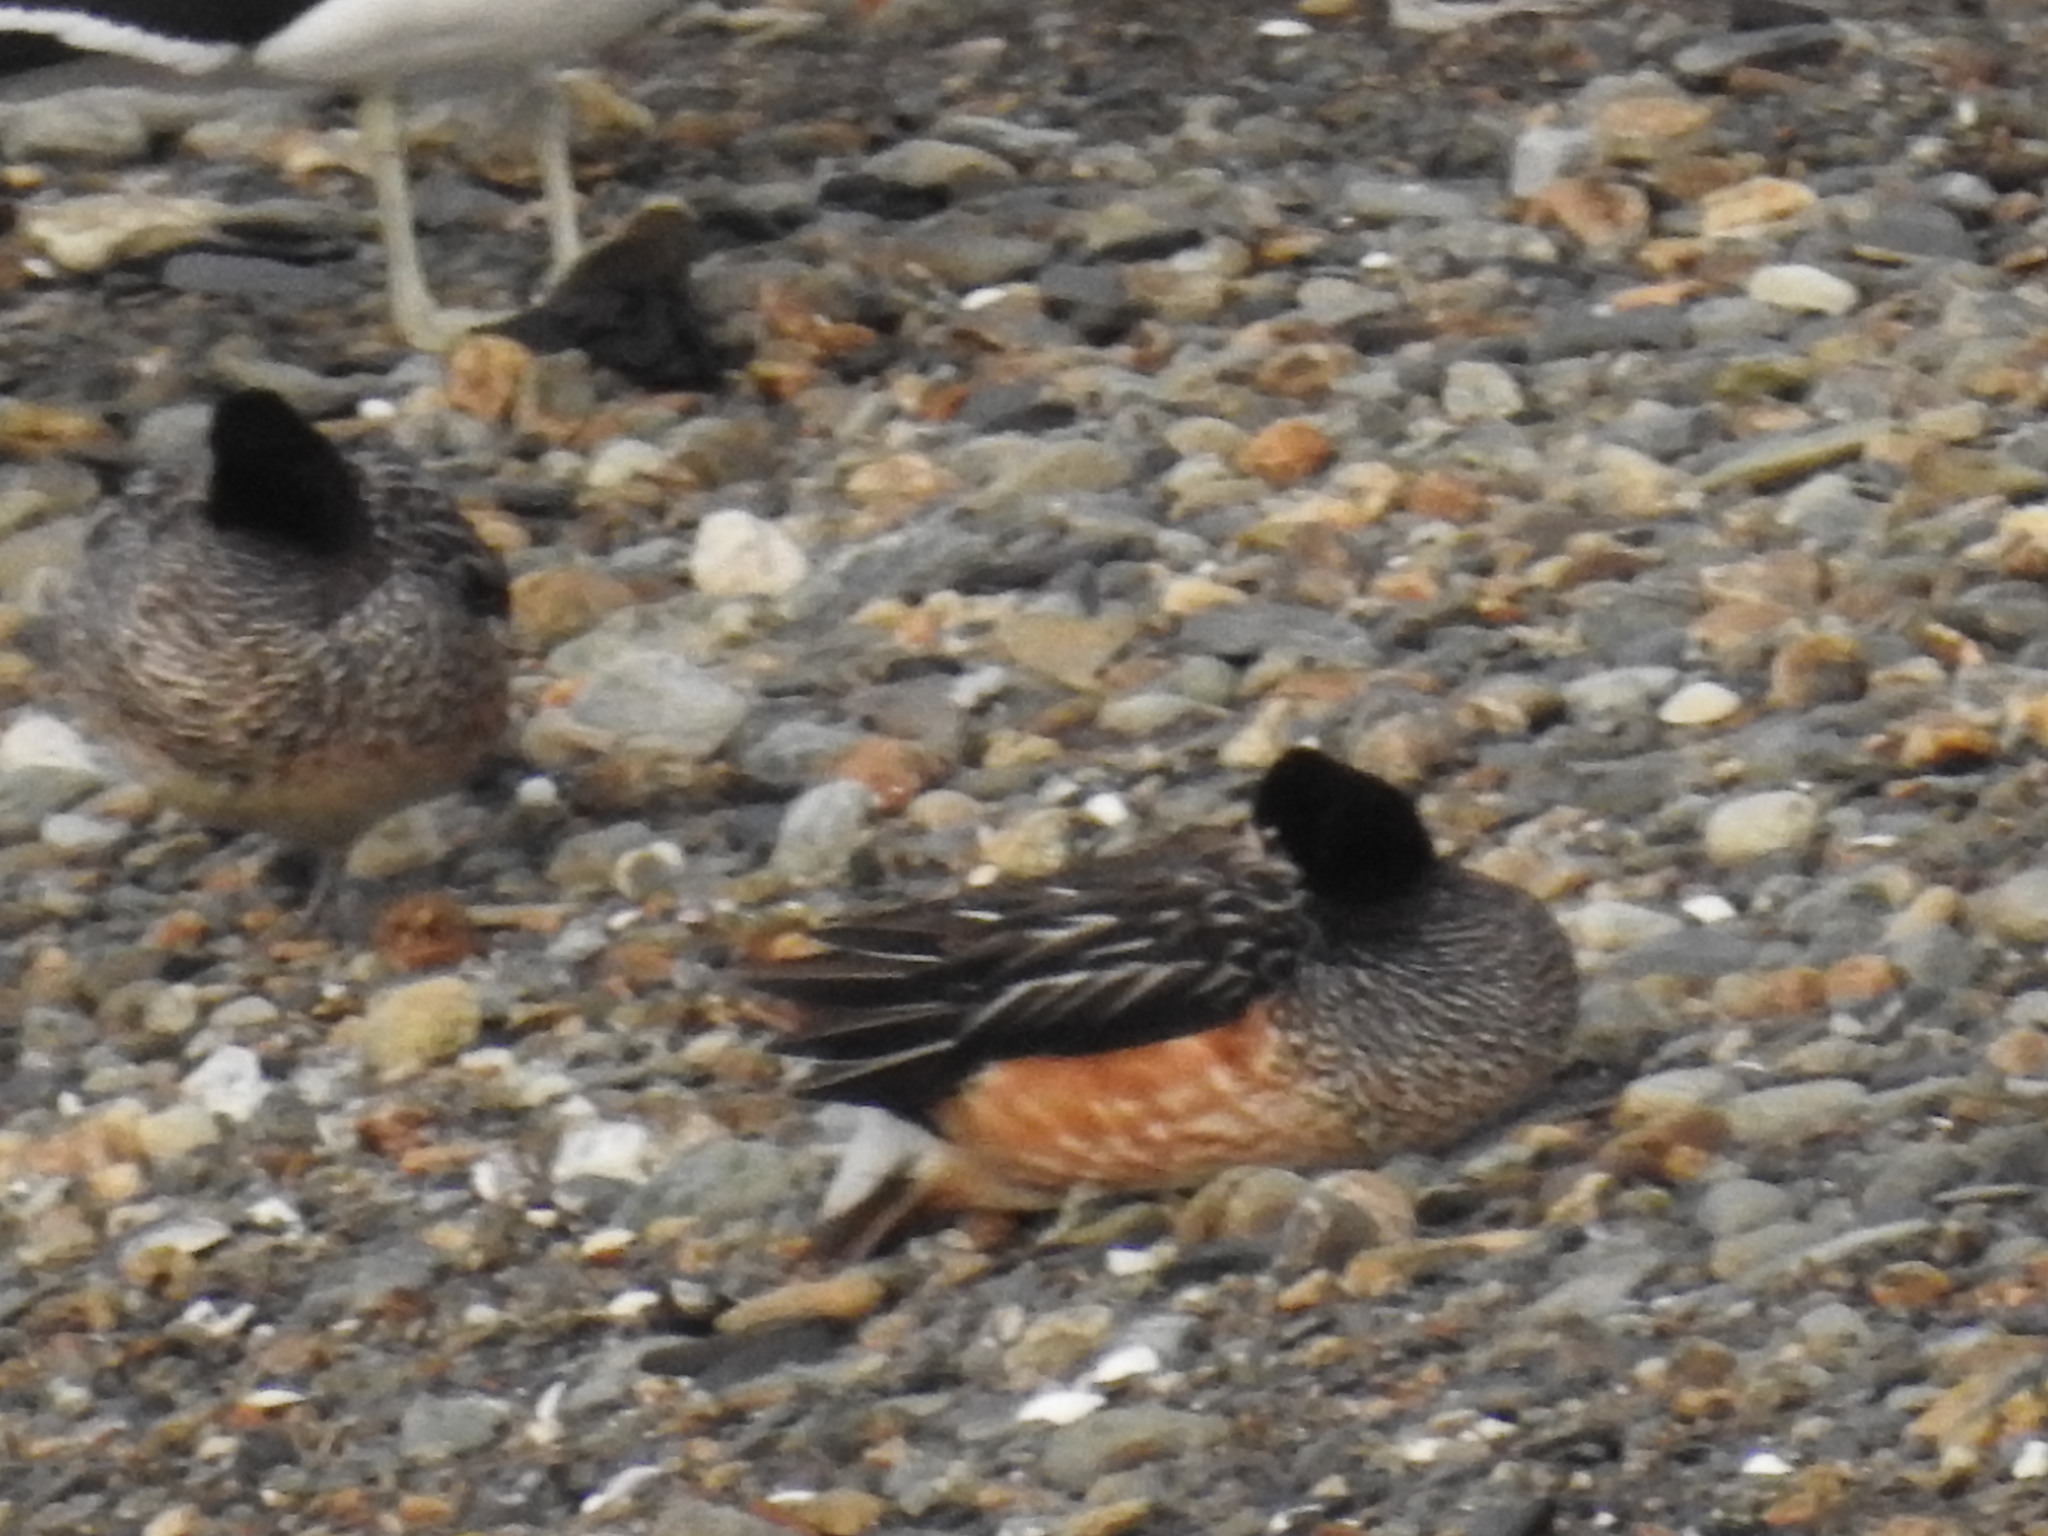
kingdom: Animalia
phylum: Chordata
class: Aves
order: Anseriformes
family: Anatidae
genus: Mareca
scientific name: Mareca sibilatrix
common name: Chiloe wigeon
